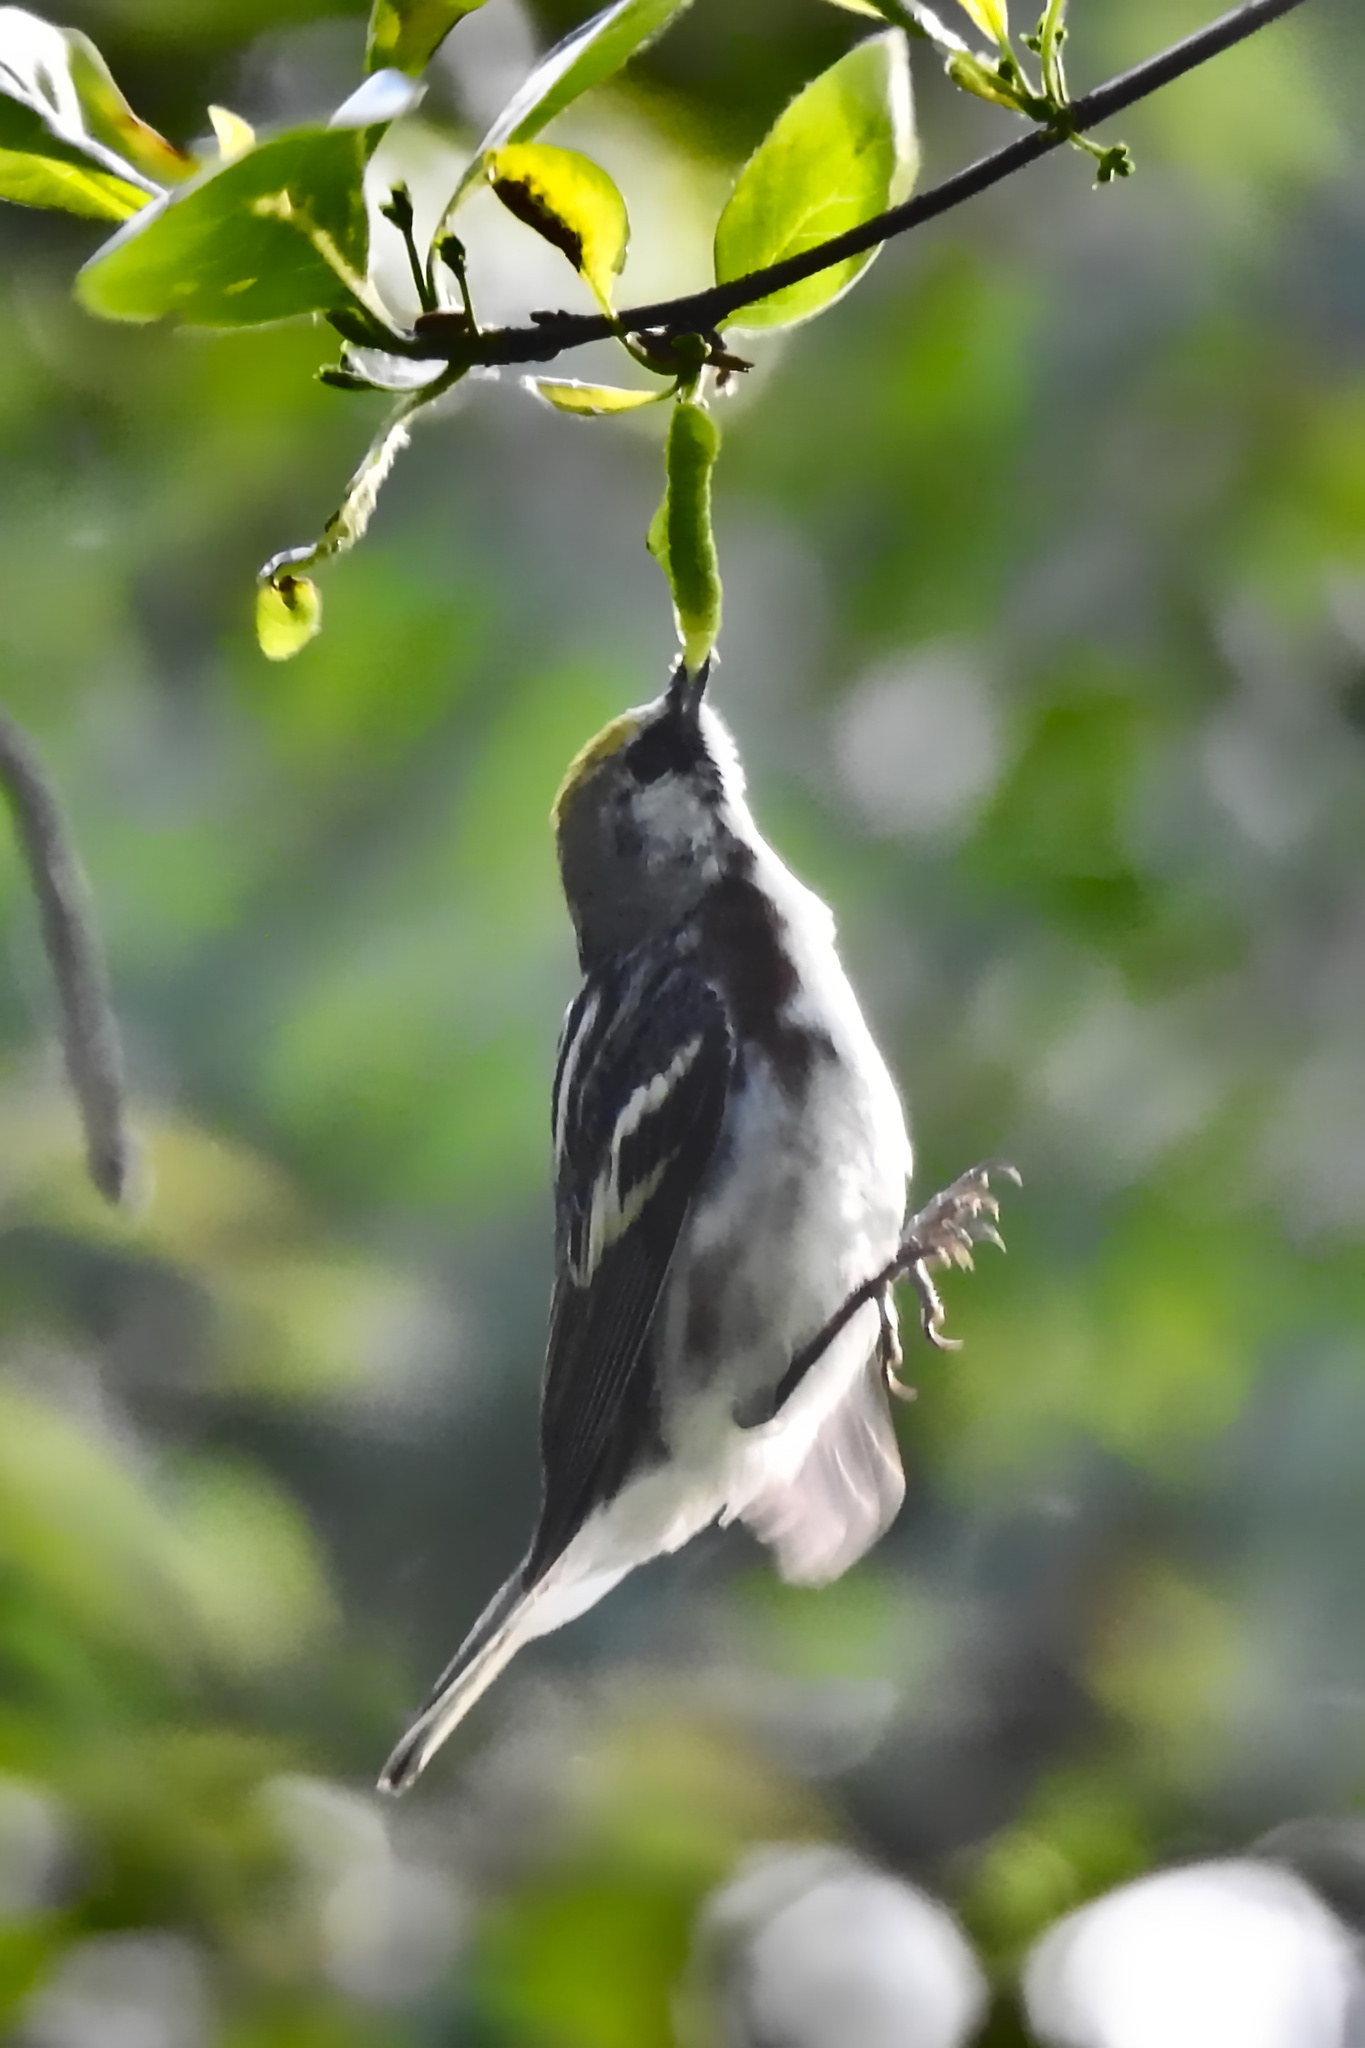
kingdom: Animalia
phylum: Chordata
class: Aves
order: Passeriformes
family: Parulidae
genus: Setophaga
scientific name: Setophaga pensylvanica
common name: Chestnut-sided warbler
